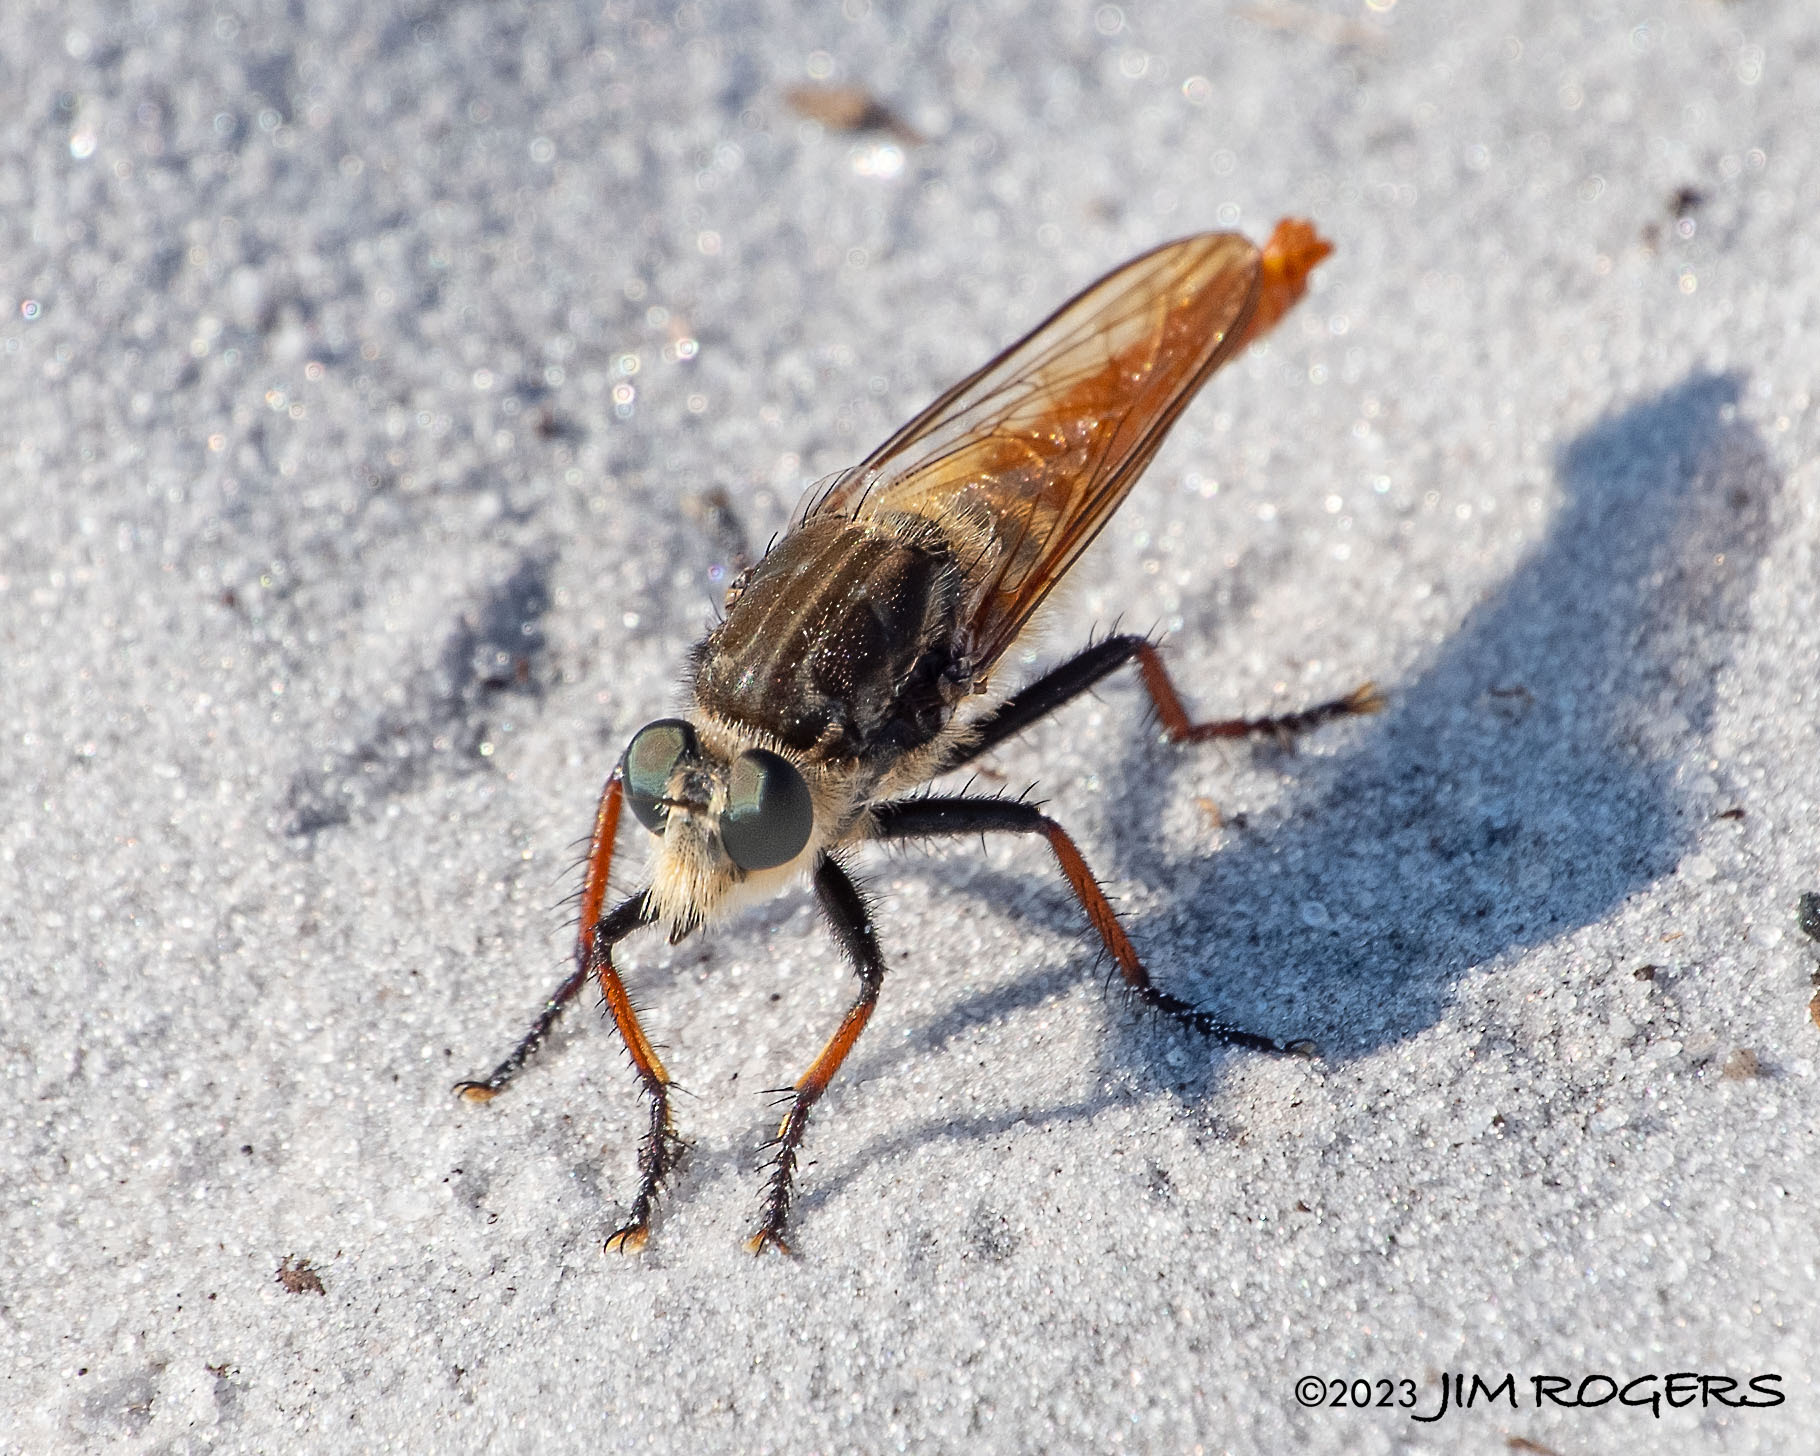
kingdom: Animalia
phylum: Arthropoda
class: Insecta
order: Diptera
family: Asilidae
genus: Proctacanthus
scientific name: Proctacanthus fulviventris
